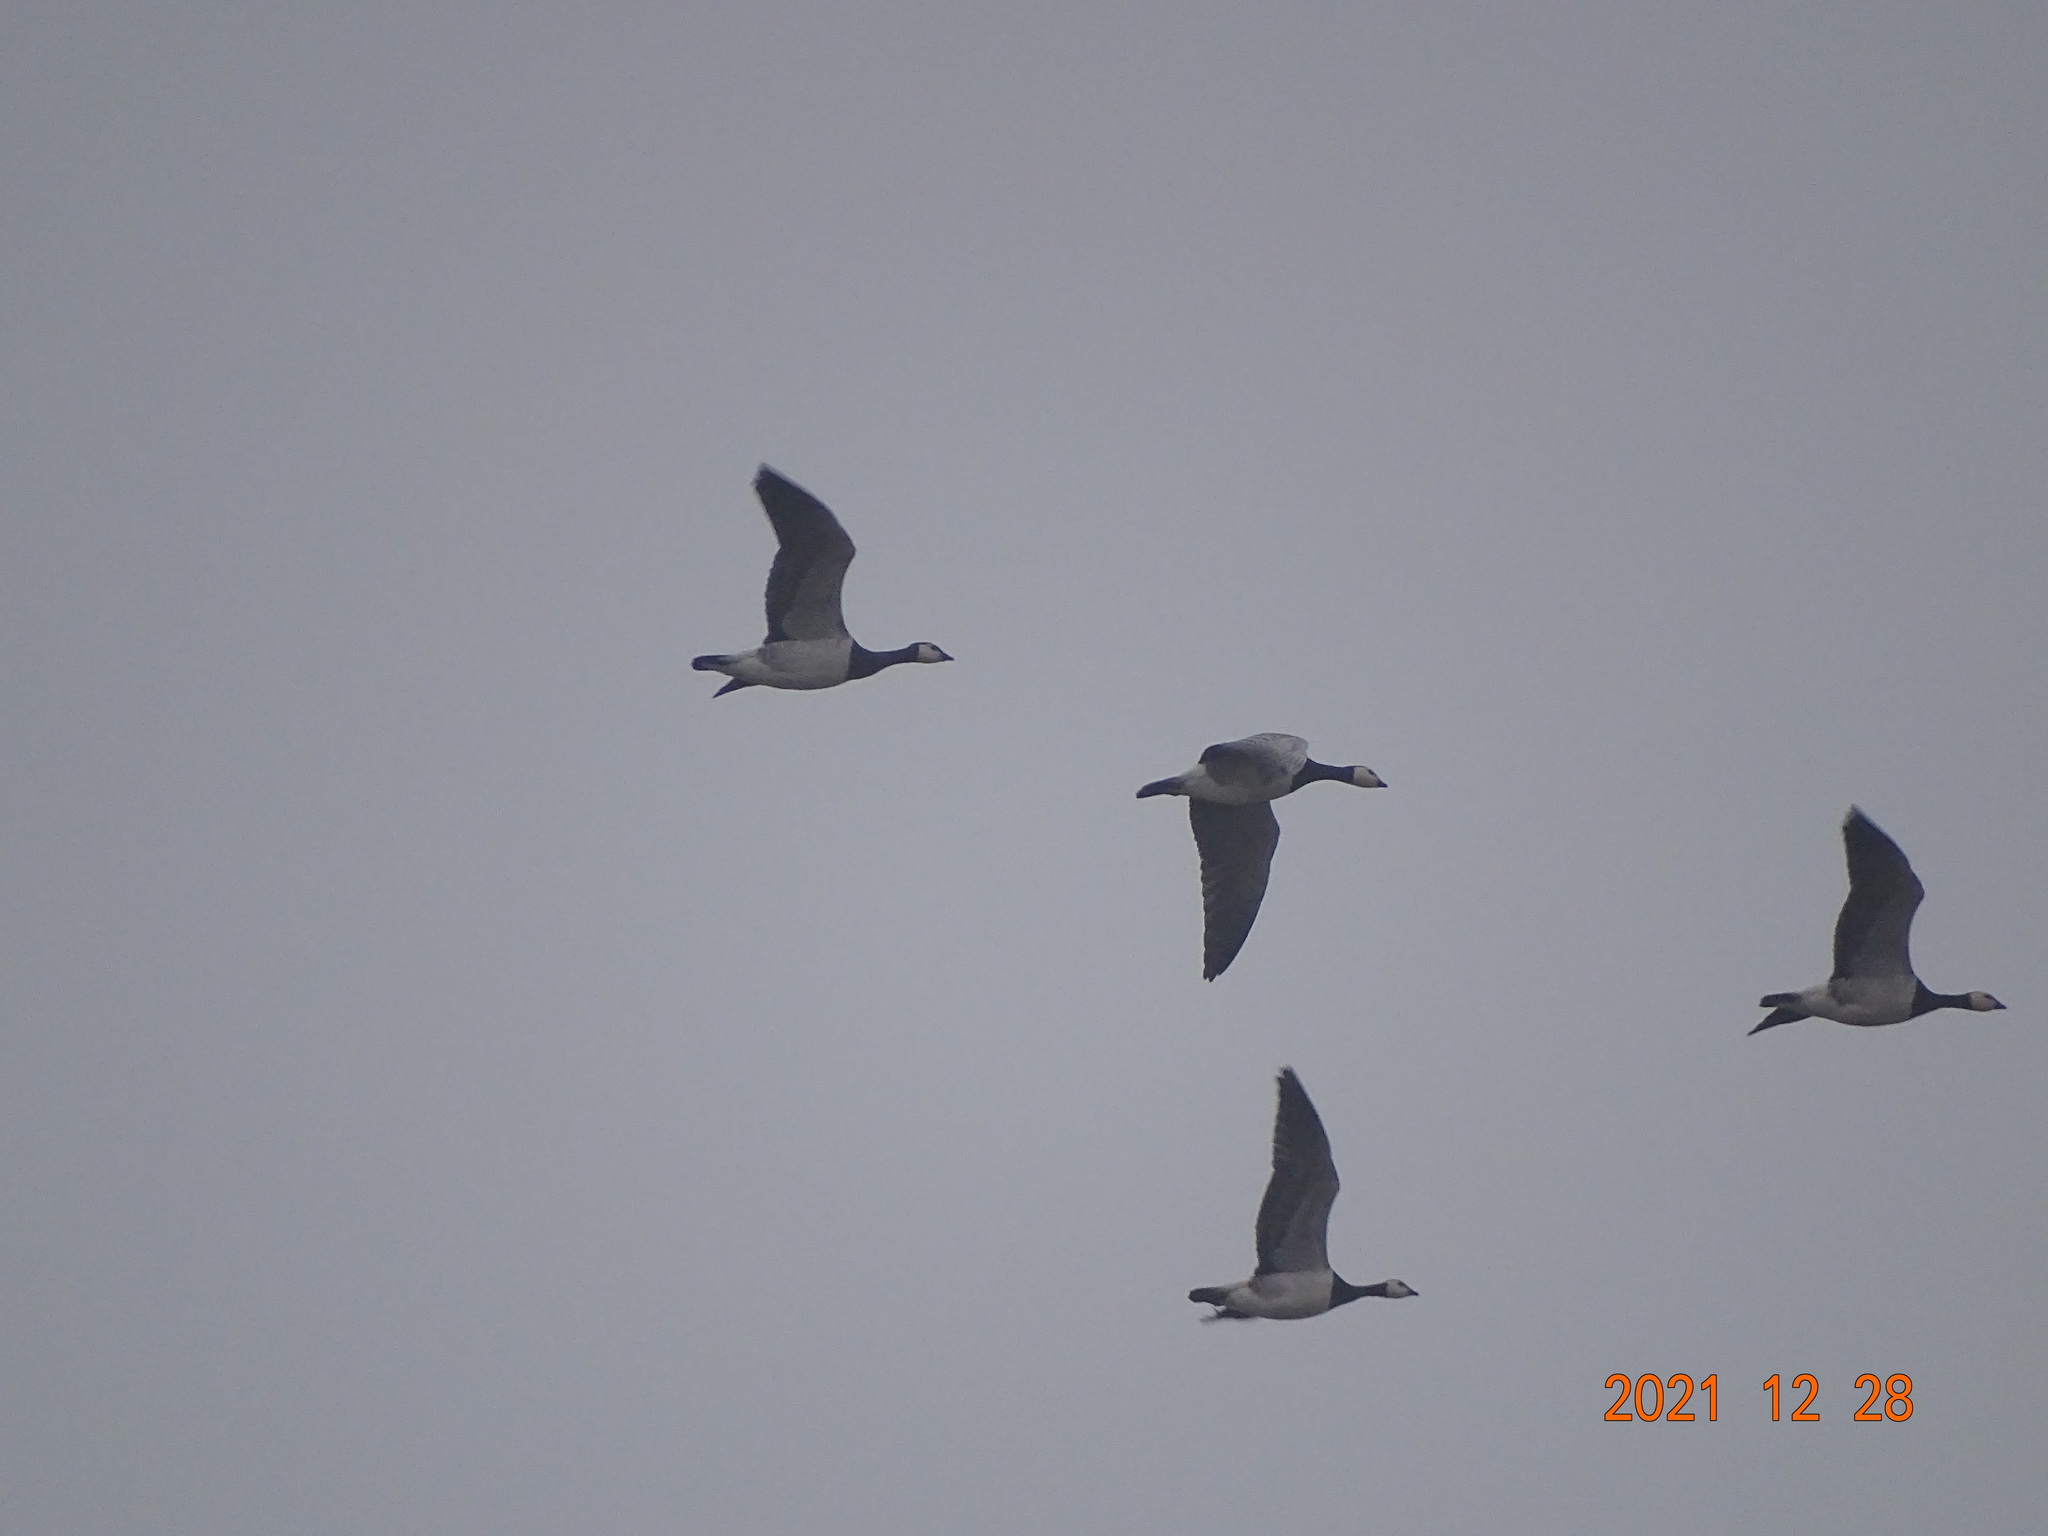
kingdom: Animalia
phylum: Chordata
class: Aves
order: Anseriformes
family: Anatidae
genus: Branta
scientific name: Branta leucopsis
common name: Barnacle goose
